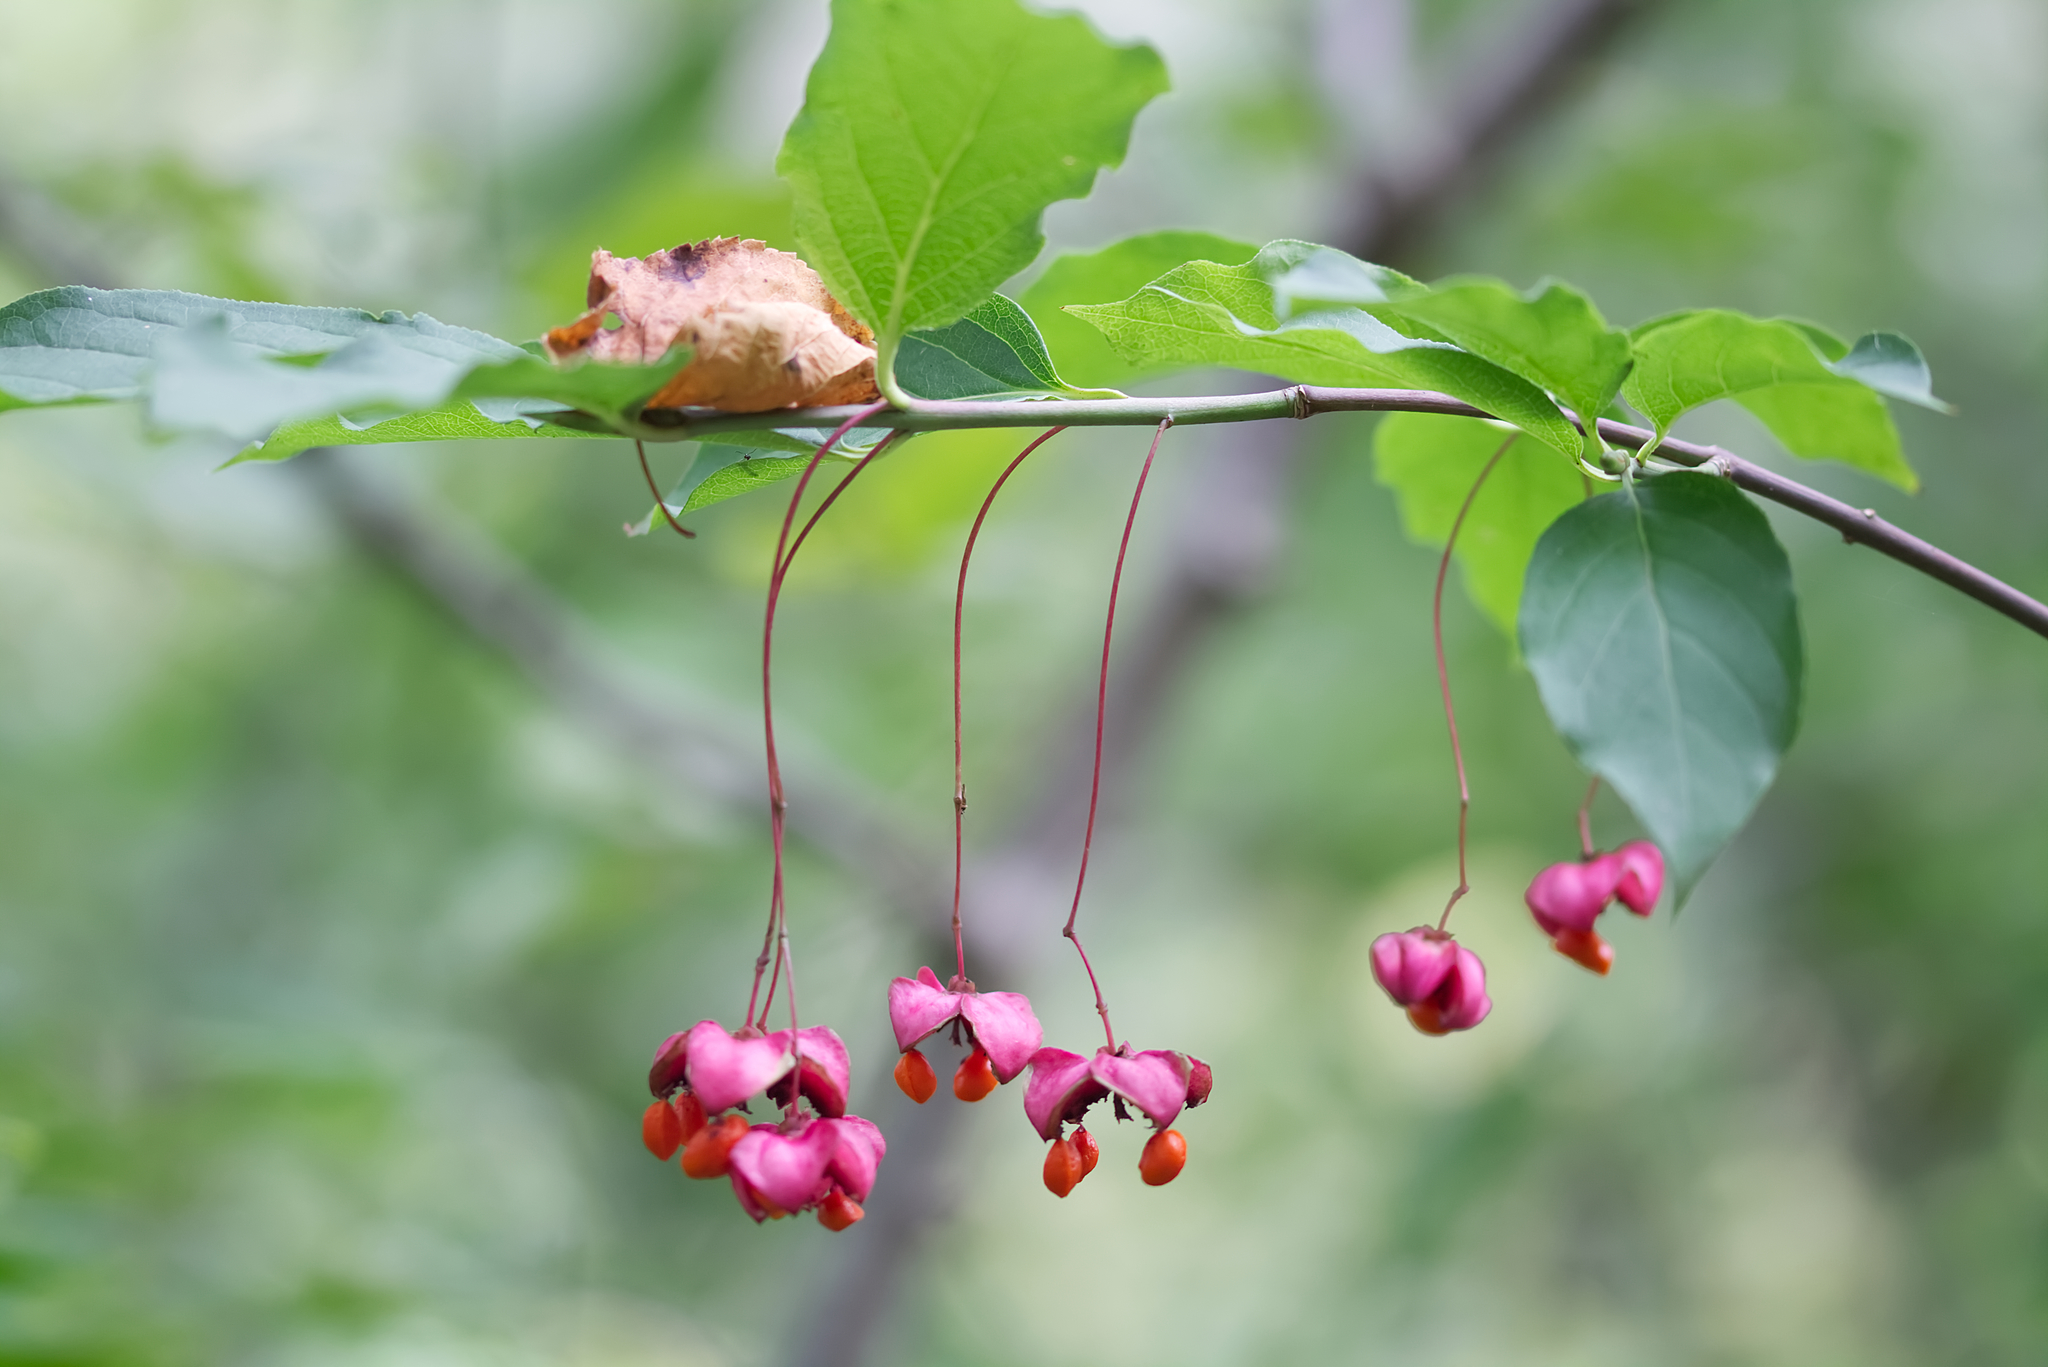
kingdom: Plantae
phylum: Tracheophyta
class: Magnoliopsida
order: Celastrales
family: Celastraceae
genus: Euonymus
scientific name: Euonymus latifolius
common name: Large-leaved spindle
